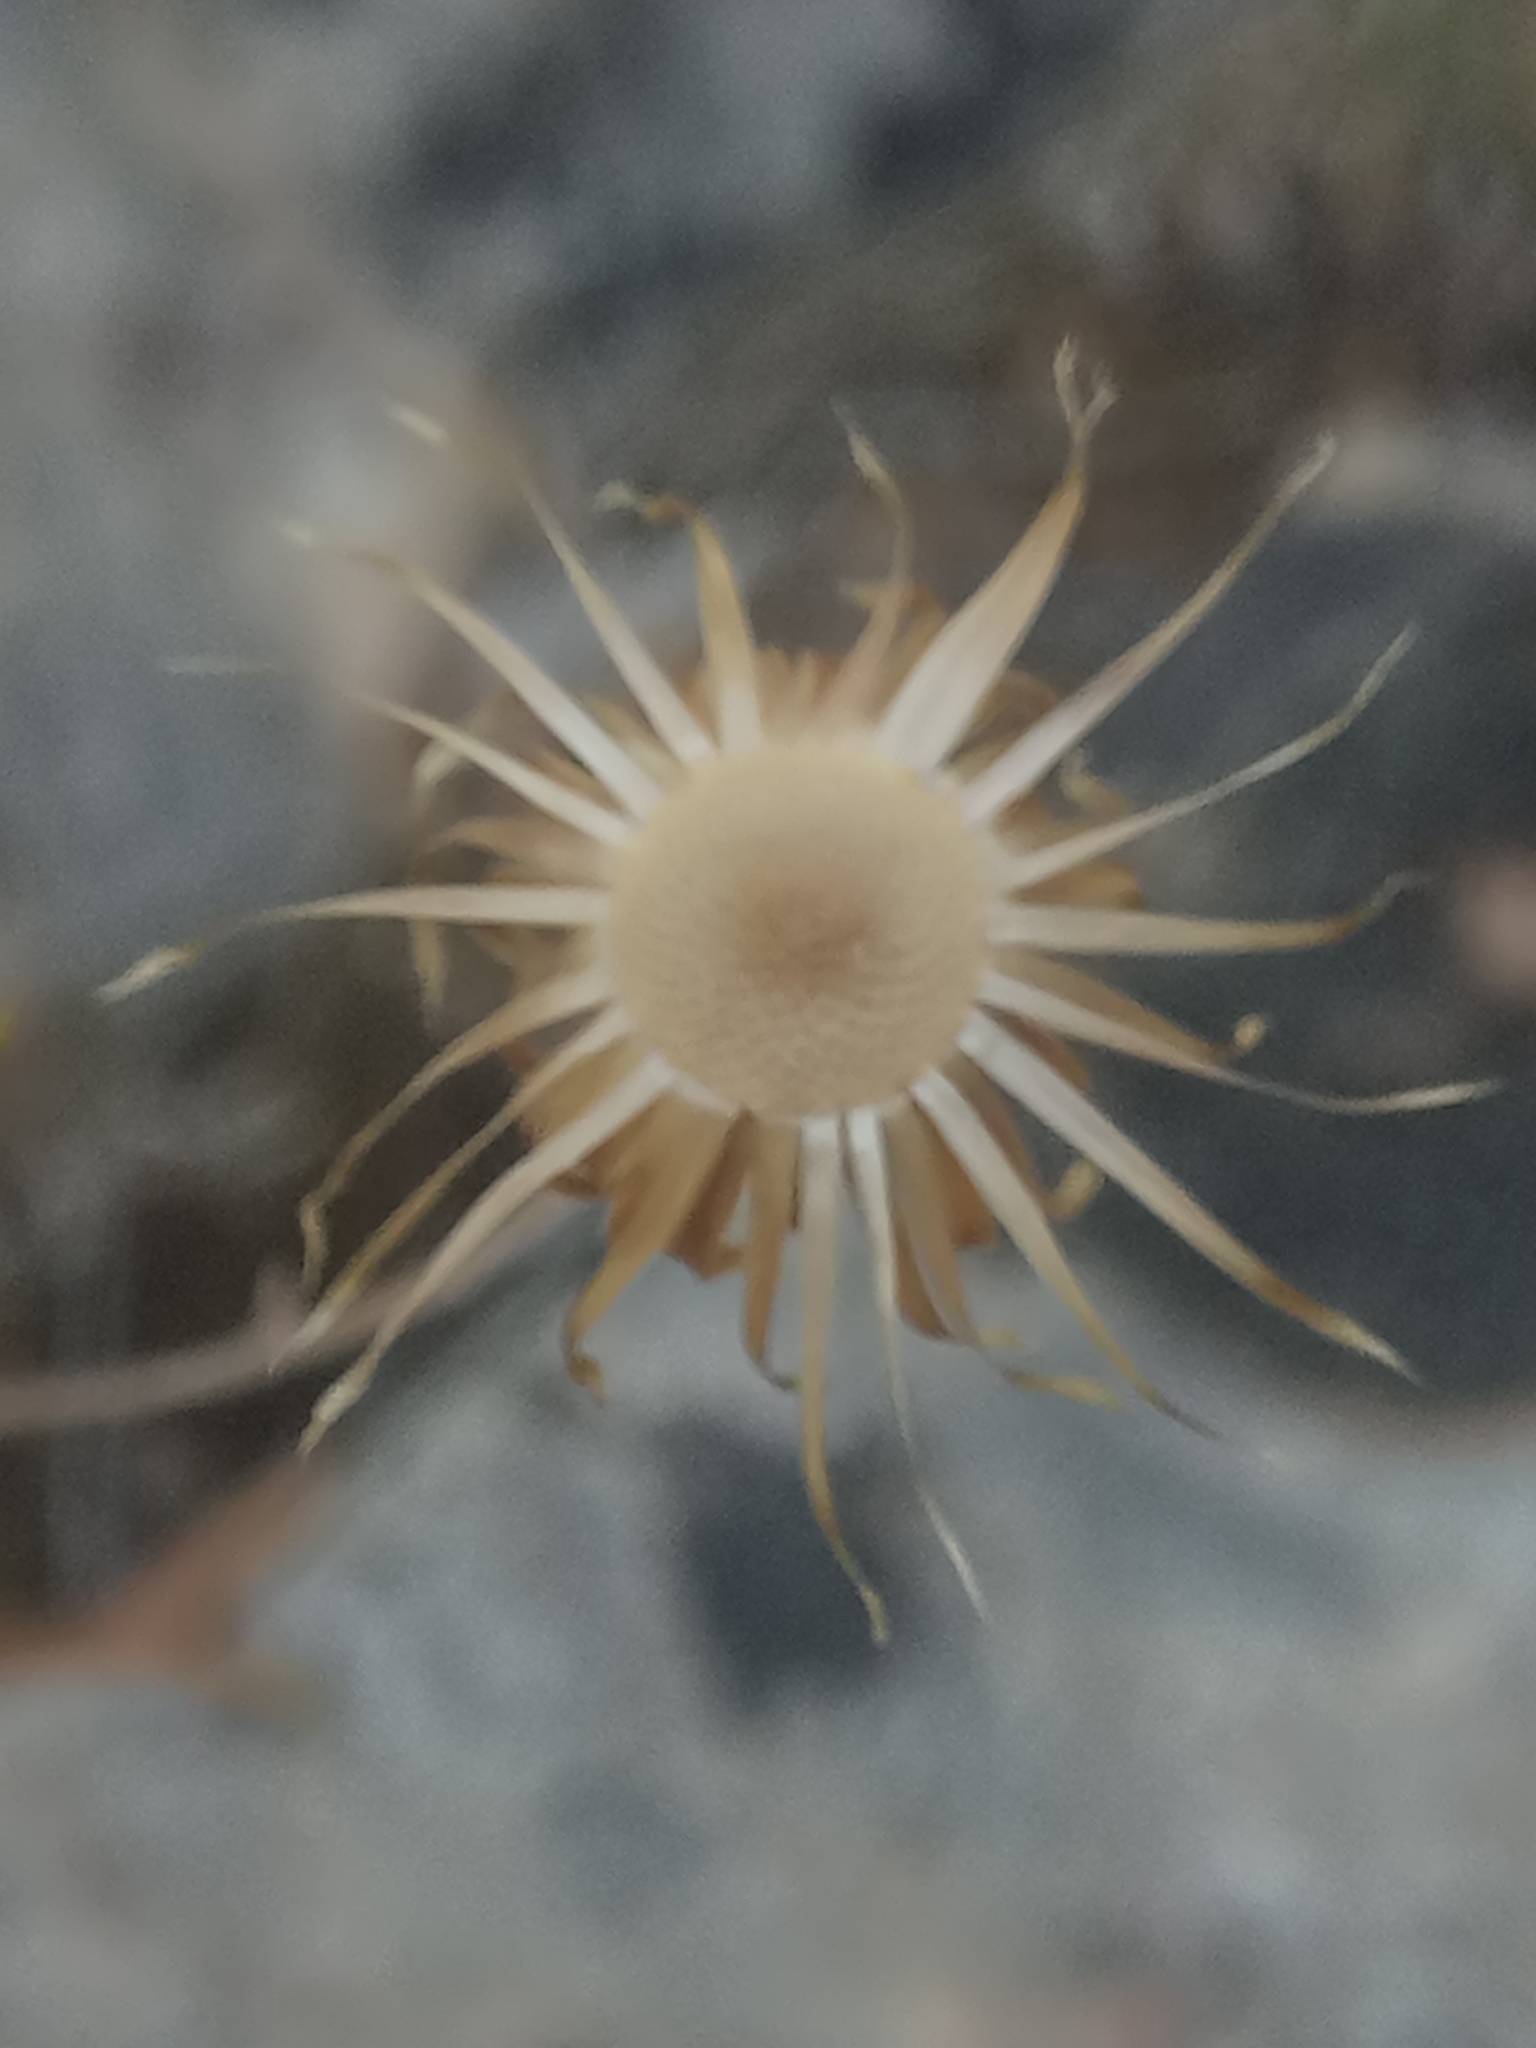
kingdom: Plantae
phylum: Tracheophyta
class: Magnoliopsida
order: Asterales
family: Asteraceae
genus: Phagnalon
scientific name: Phagnalon saxatile
